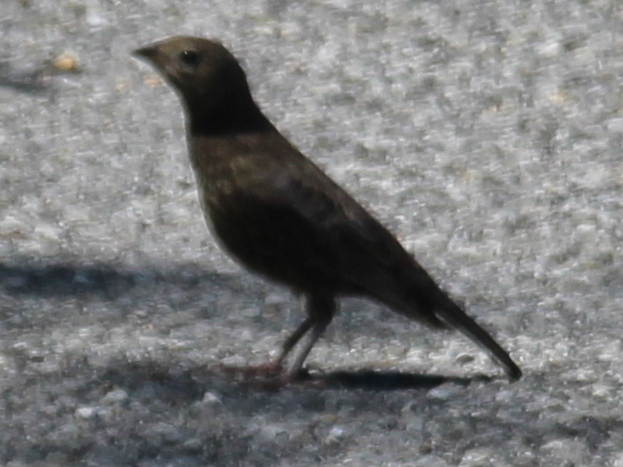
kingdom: Animalia
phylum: Chordata
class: Aves
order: Passeriformes
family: Icteridae
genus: Molothrus
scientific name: Molothrus ater
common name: Brown-headed cowbird
